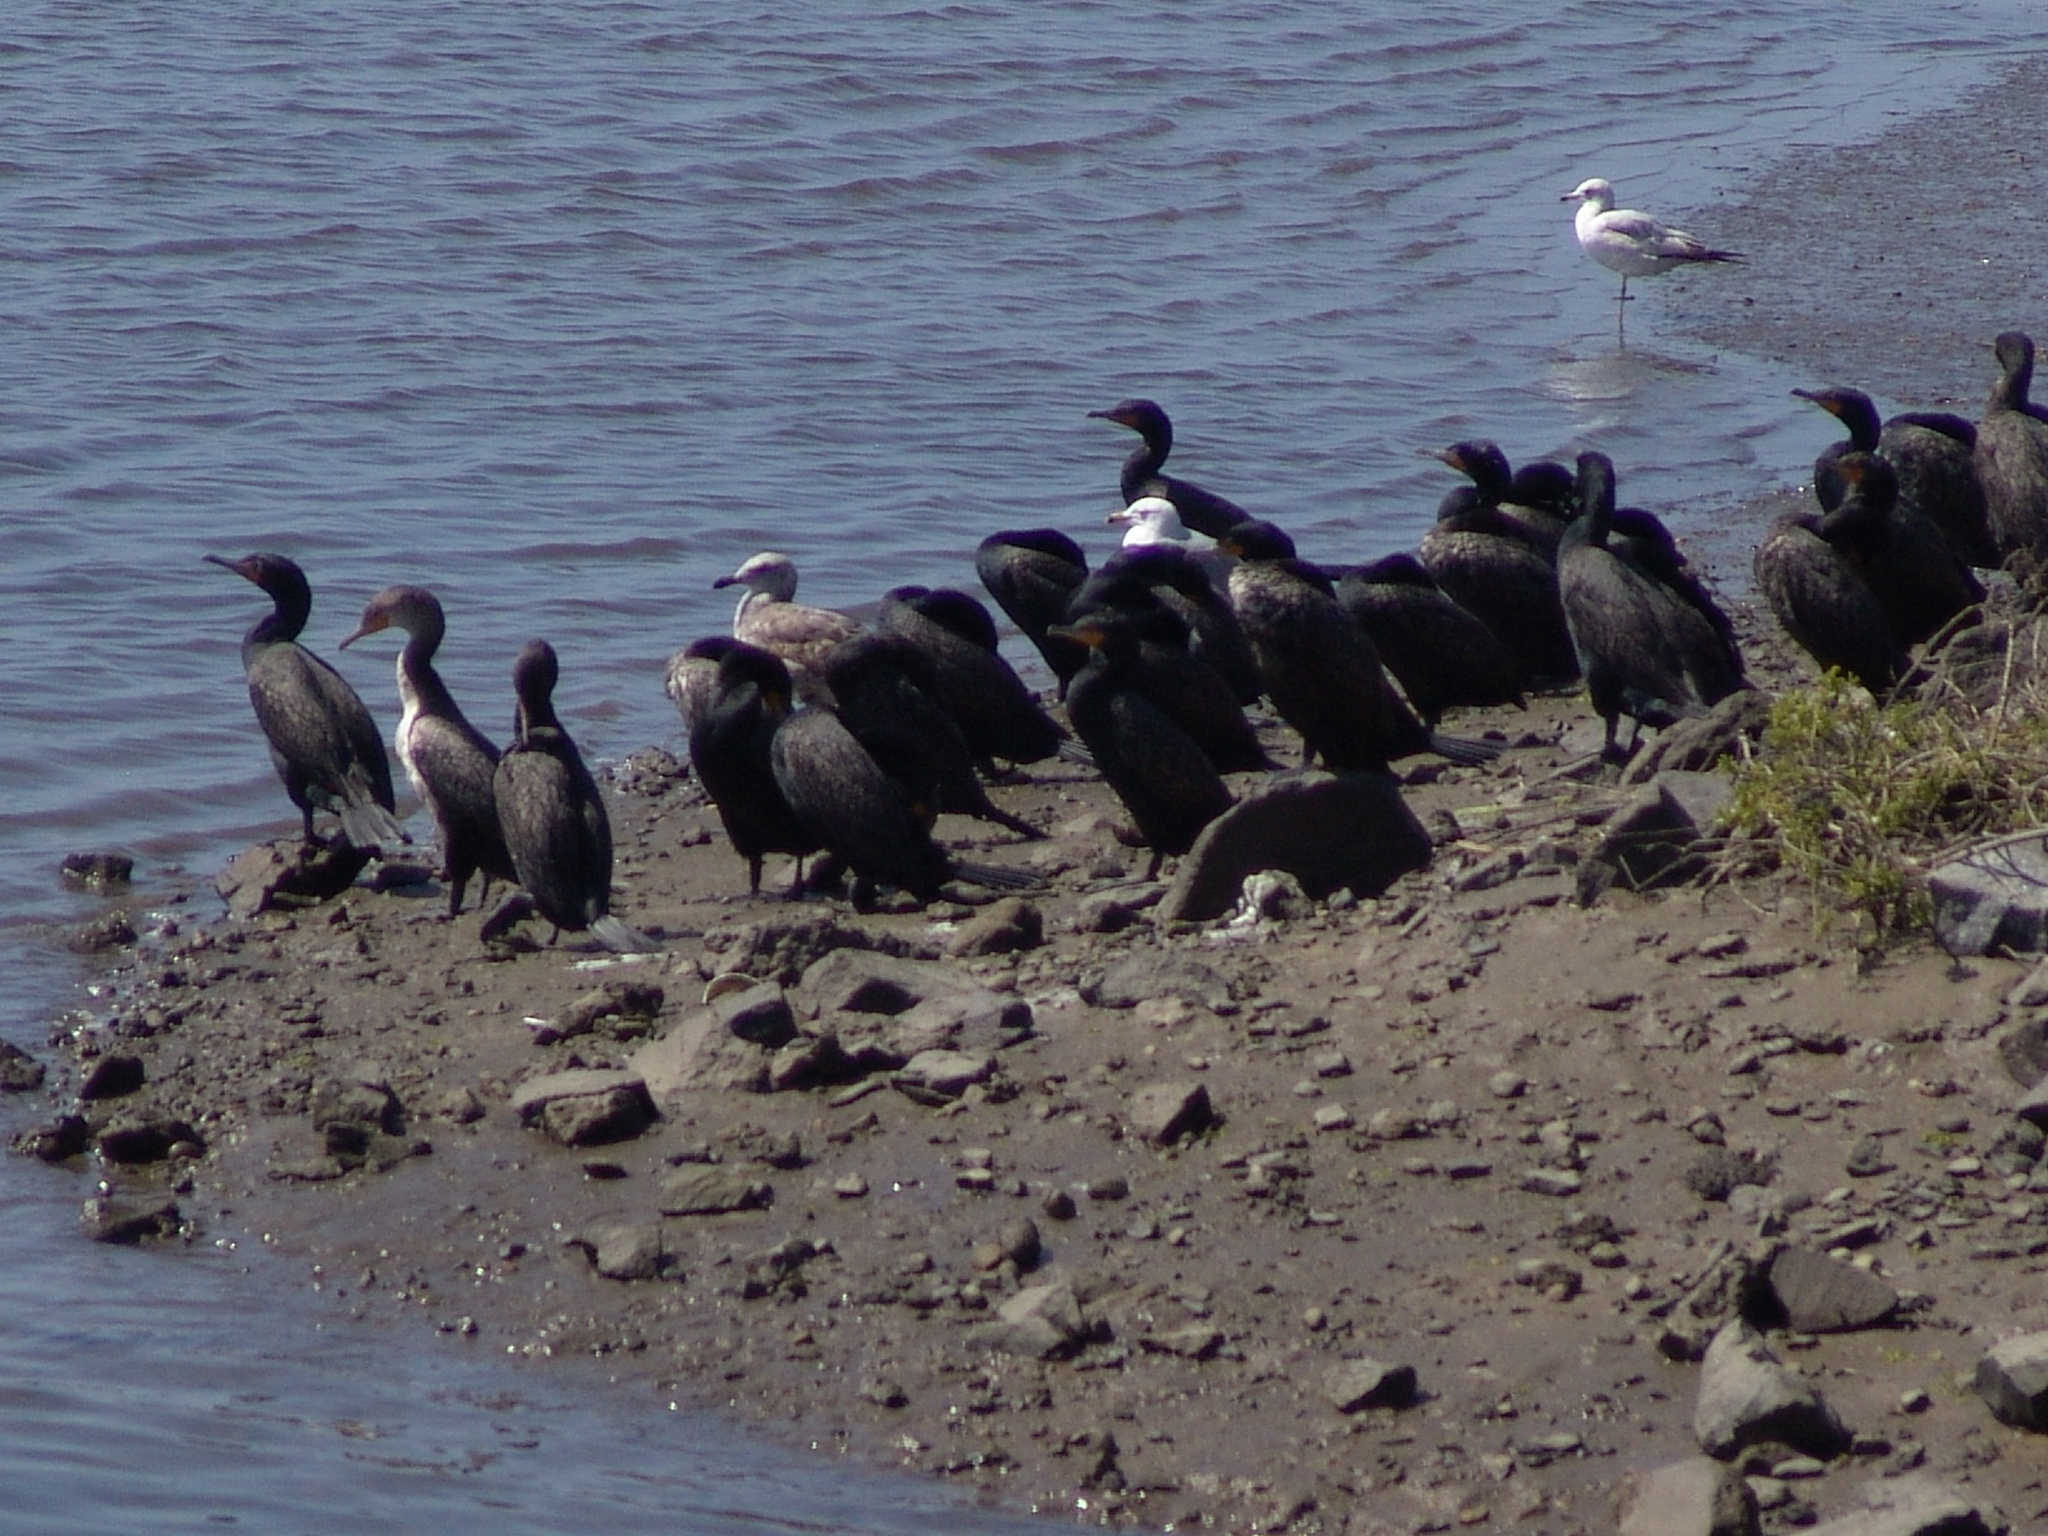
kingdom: Animalia
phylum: Chordata
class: Aves
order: Suliformes
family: Phalacrocoracidae
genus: Phalacrocorax
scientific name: Phalacrocorax auritus
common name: Double-crested cormorant
